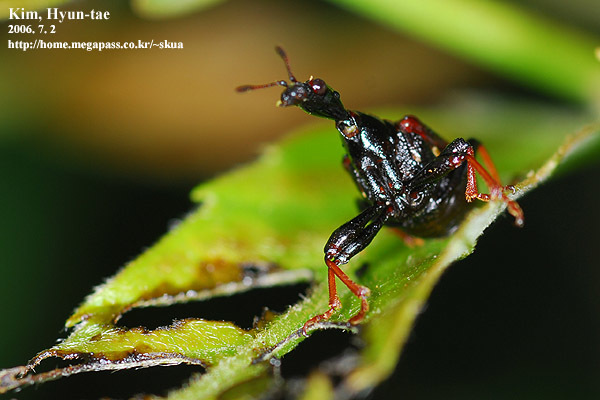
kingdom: Animalia
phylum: Arthropoda
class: Insecta
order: Coleoptera
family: Attelabidae
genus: Paracycnotrachelus
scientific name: Paracycnotrachelus chinensis
